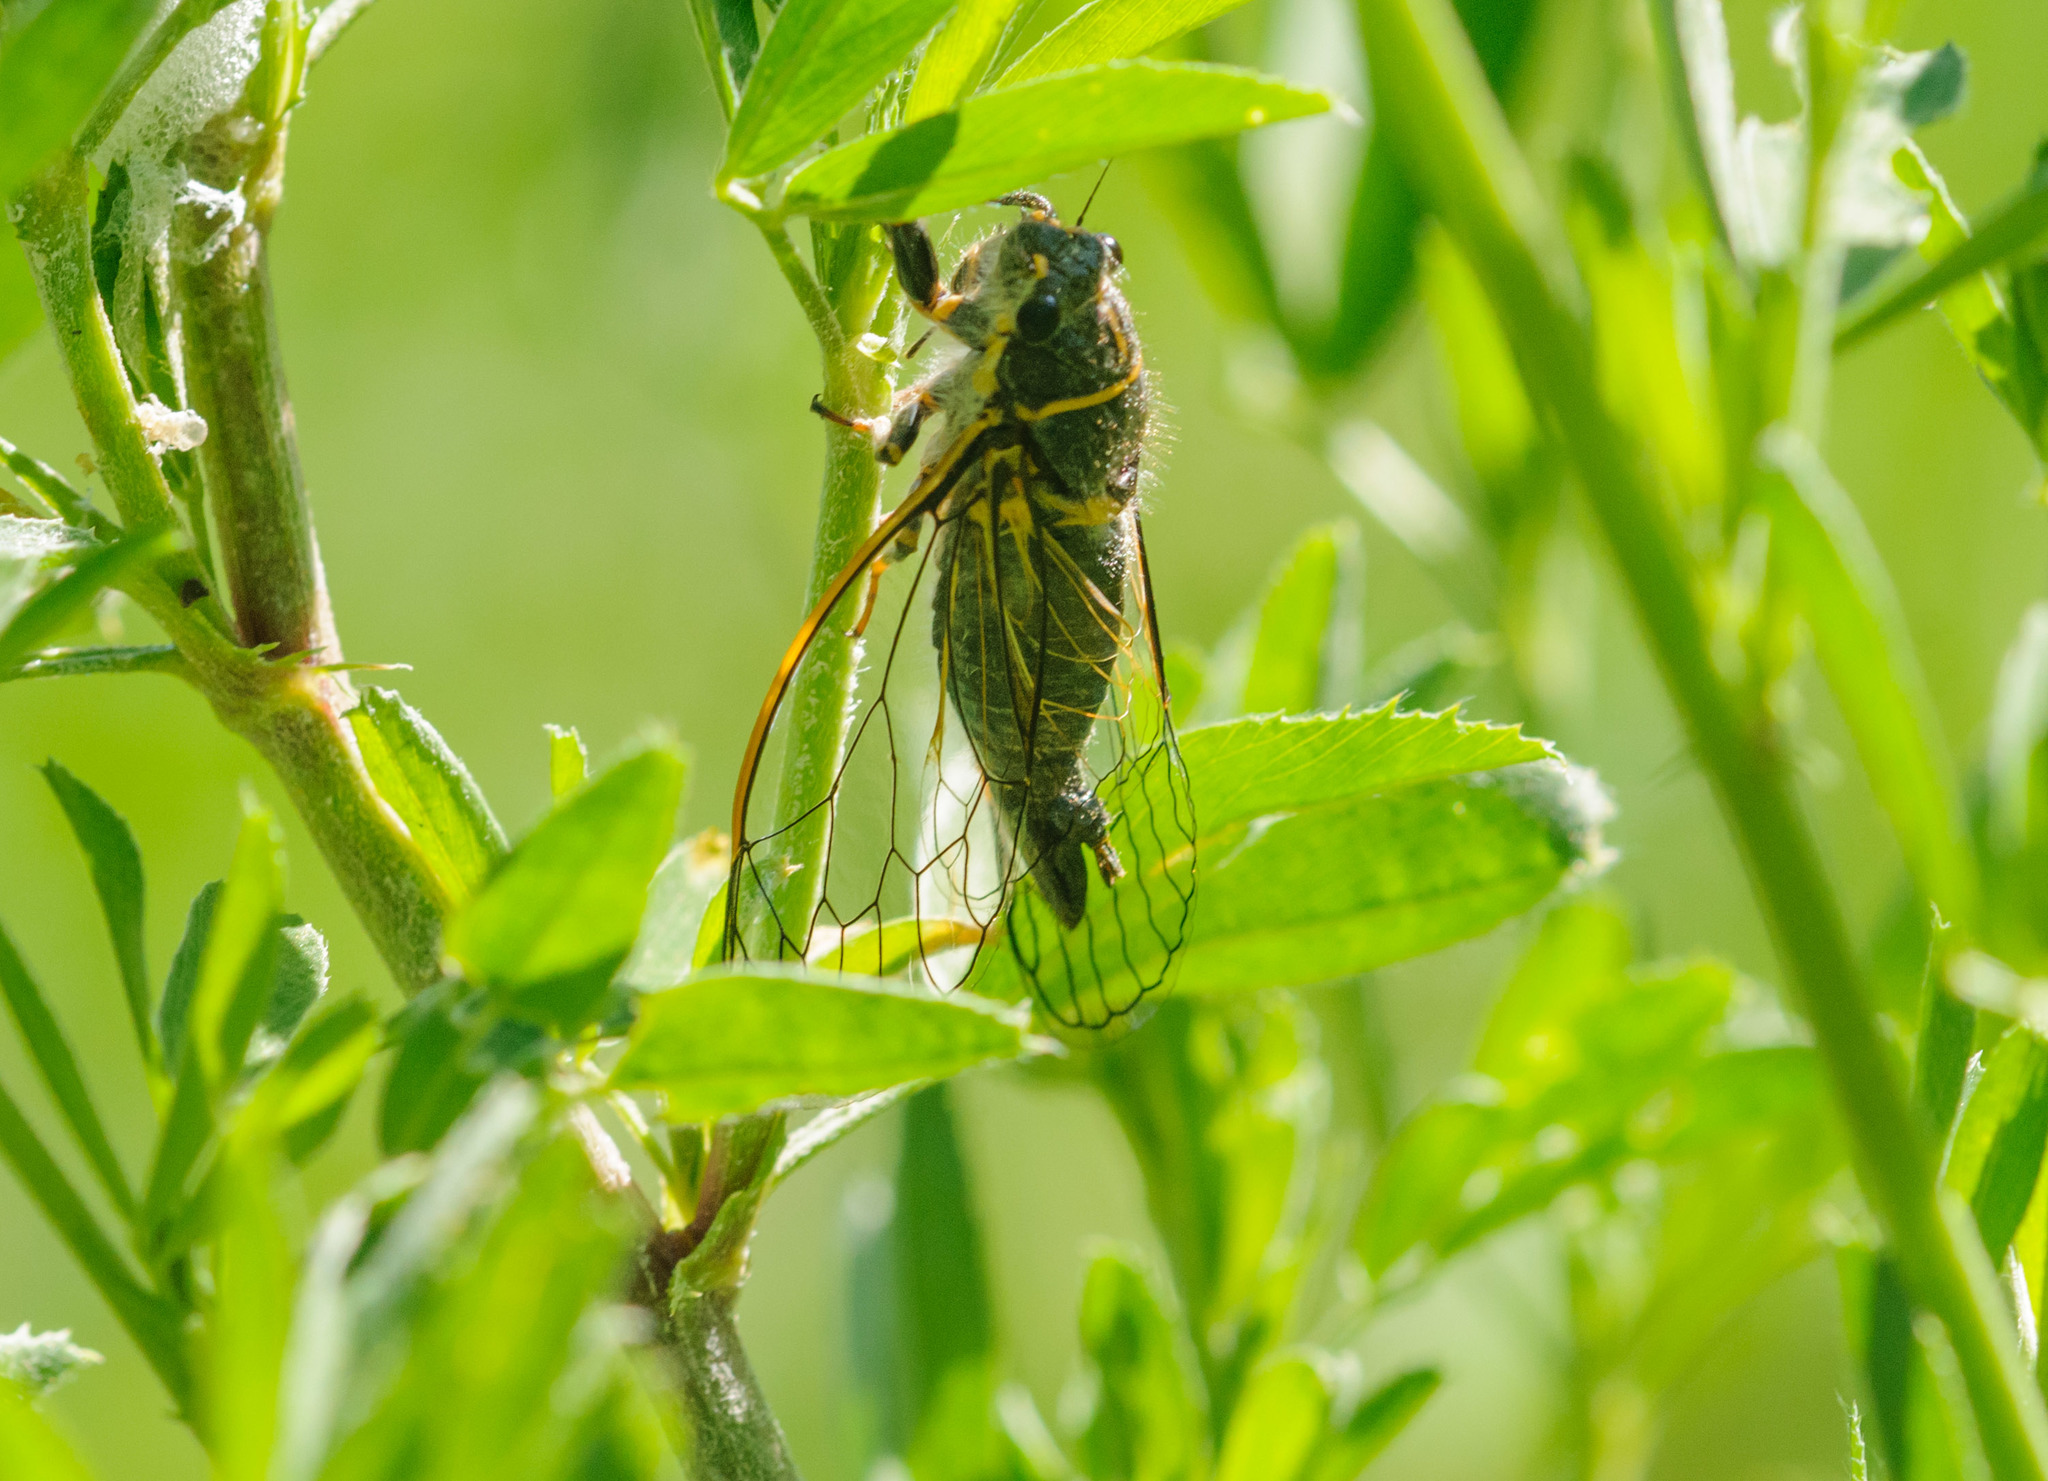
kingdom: Animalia
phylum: Arthropoda
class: Insecta
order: Hemiptera
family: Cicadidae
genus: Platypedia
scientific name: Platypedia putnami
